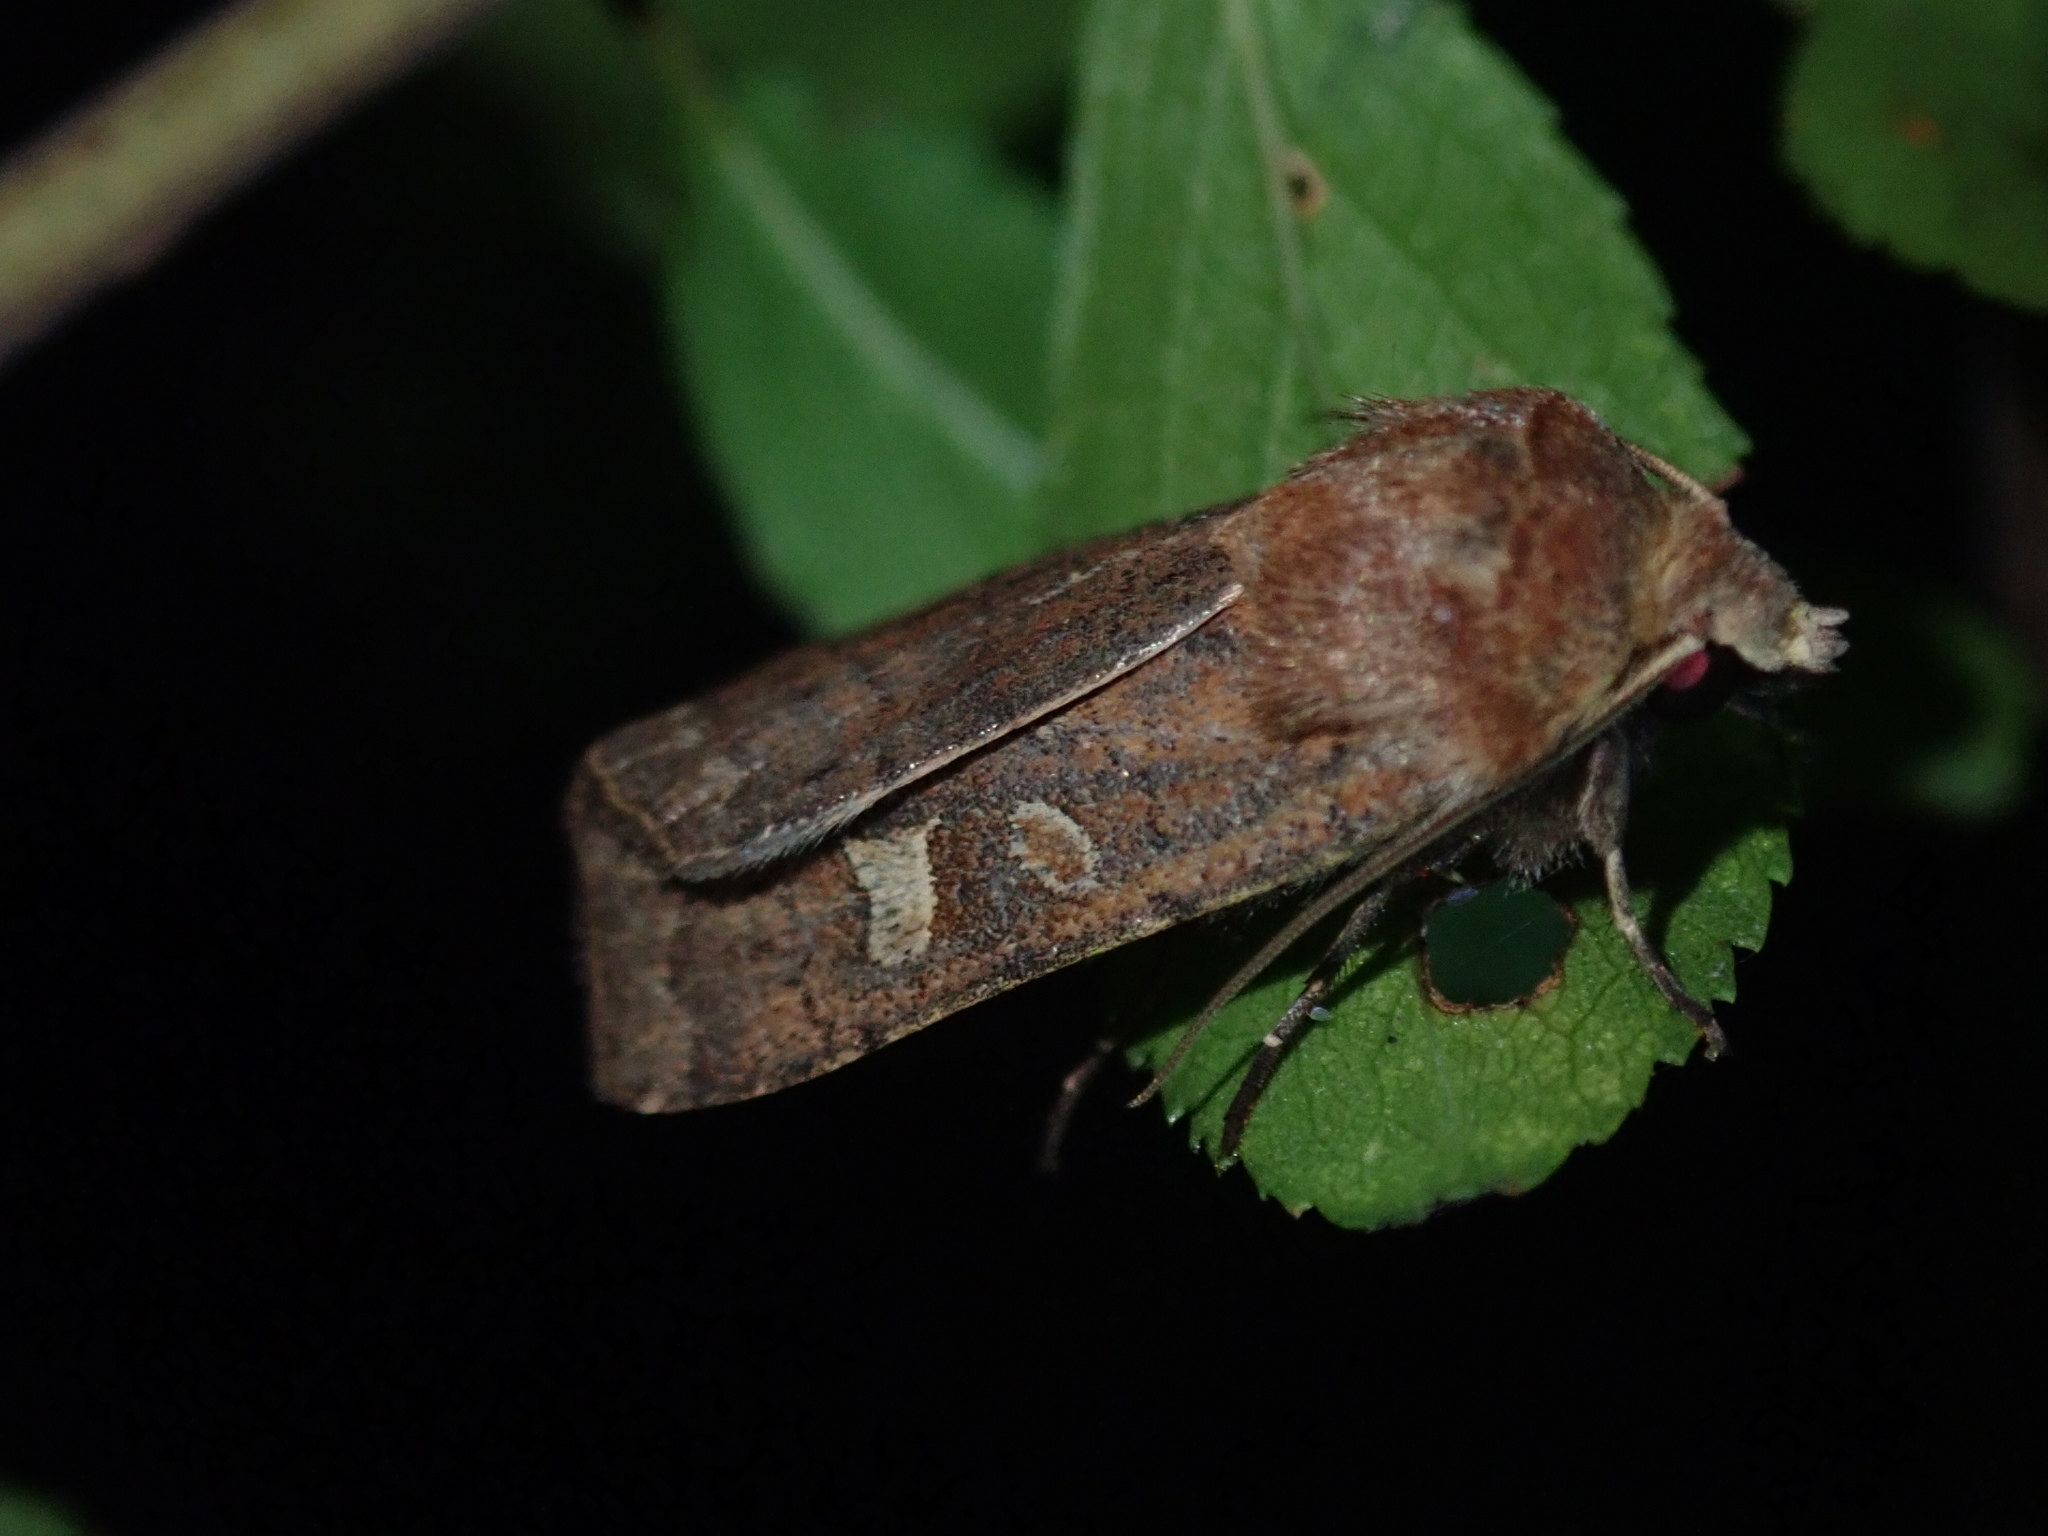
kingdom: Animalia
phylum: Arthropoda
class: Insecta
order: Lepidoptera
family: Noctuidae
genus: Xestia
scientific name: Xestia xanthographa
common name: Square-spot rustic
